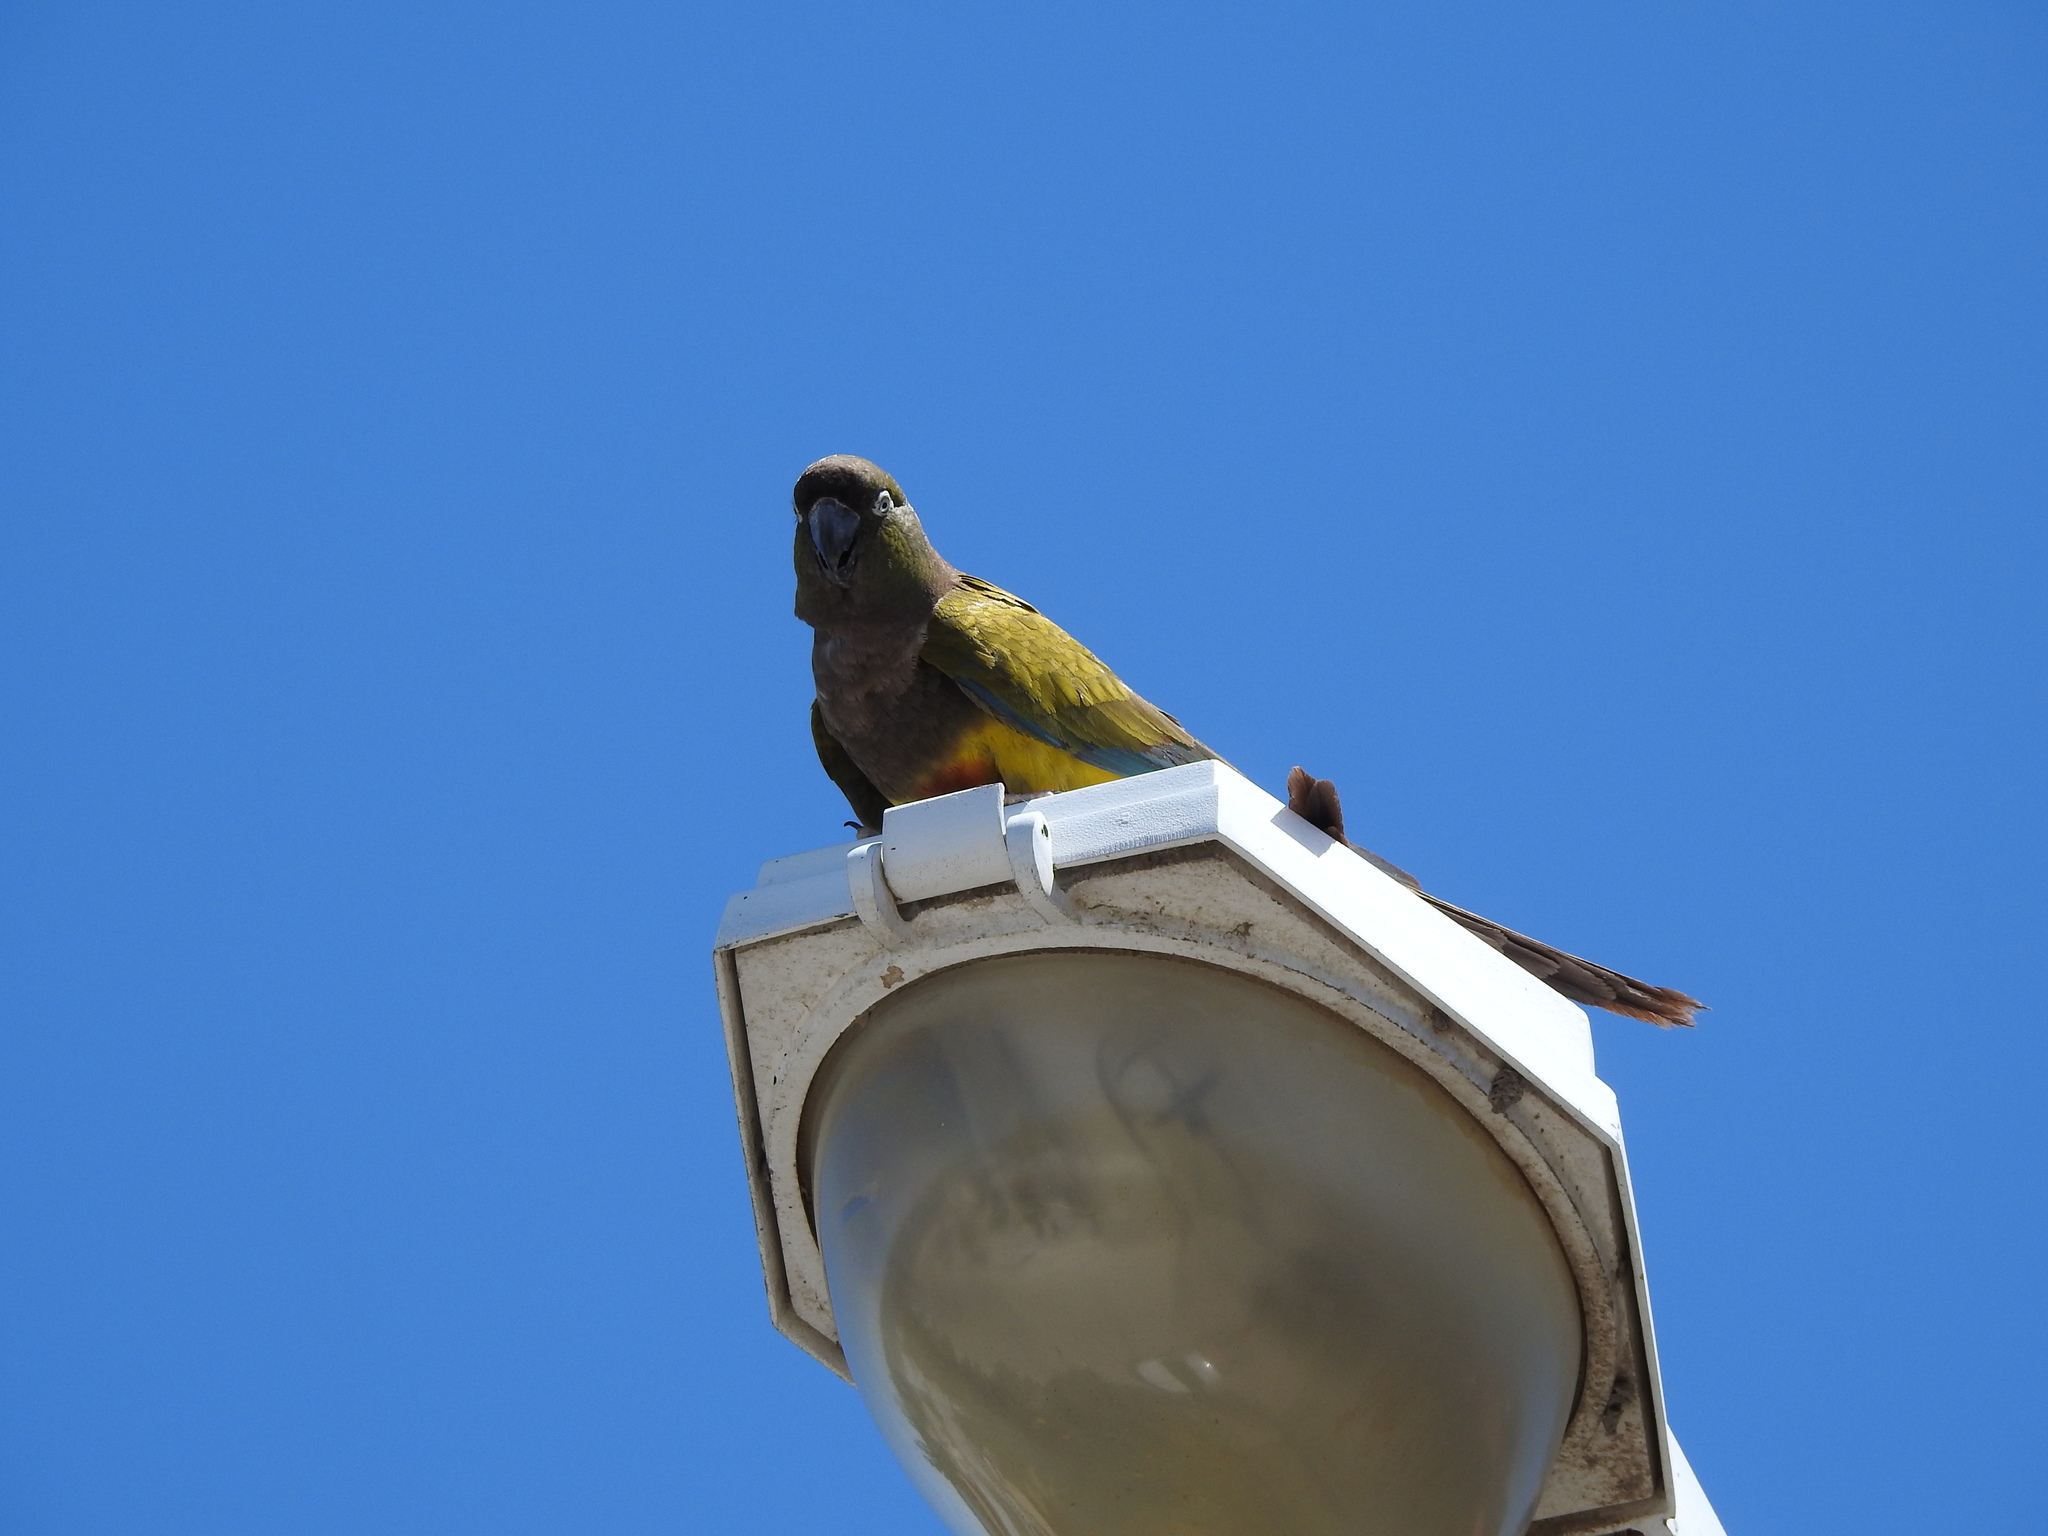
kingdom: Animalia
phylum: Chordata
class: Aves
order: Psittaciformes
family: Psittacidae
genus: Cyanoliseus
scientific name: Cyanoliseus patagonus
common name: Burrowing parrot
